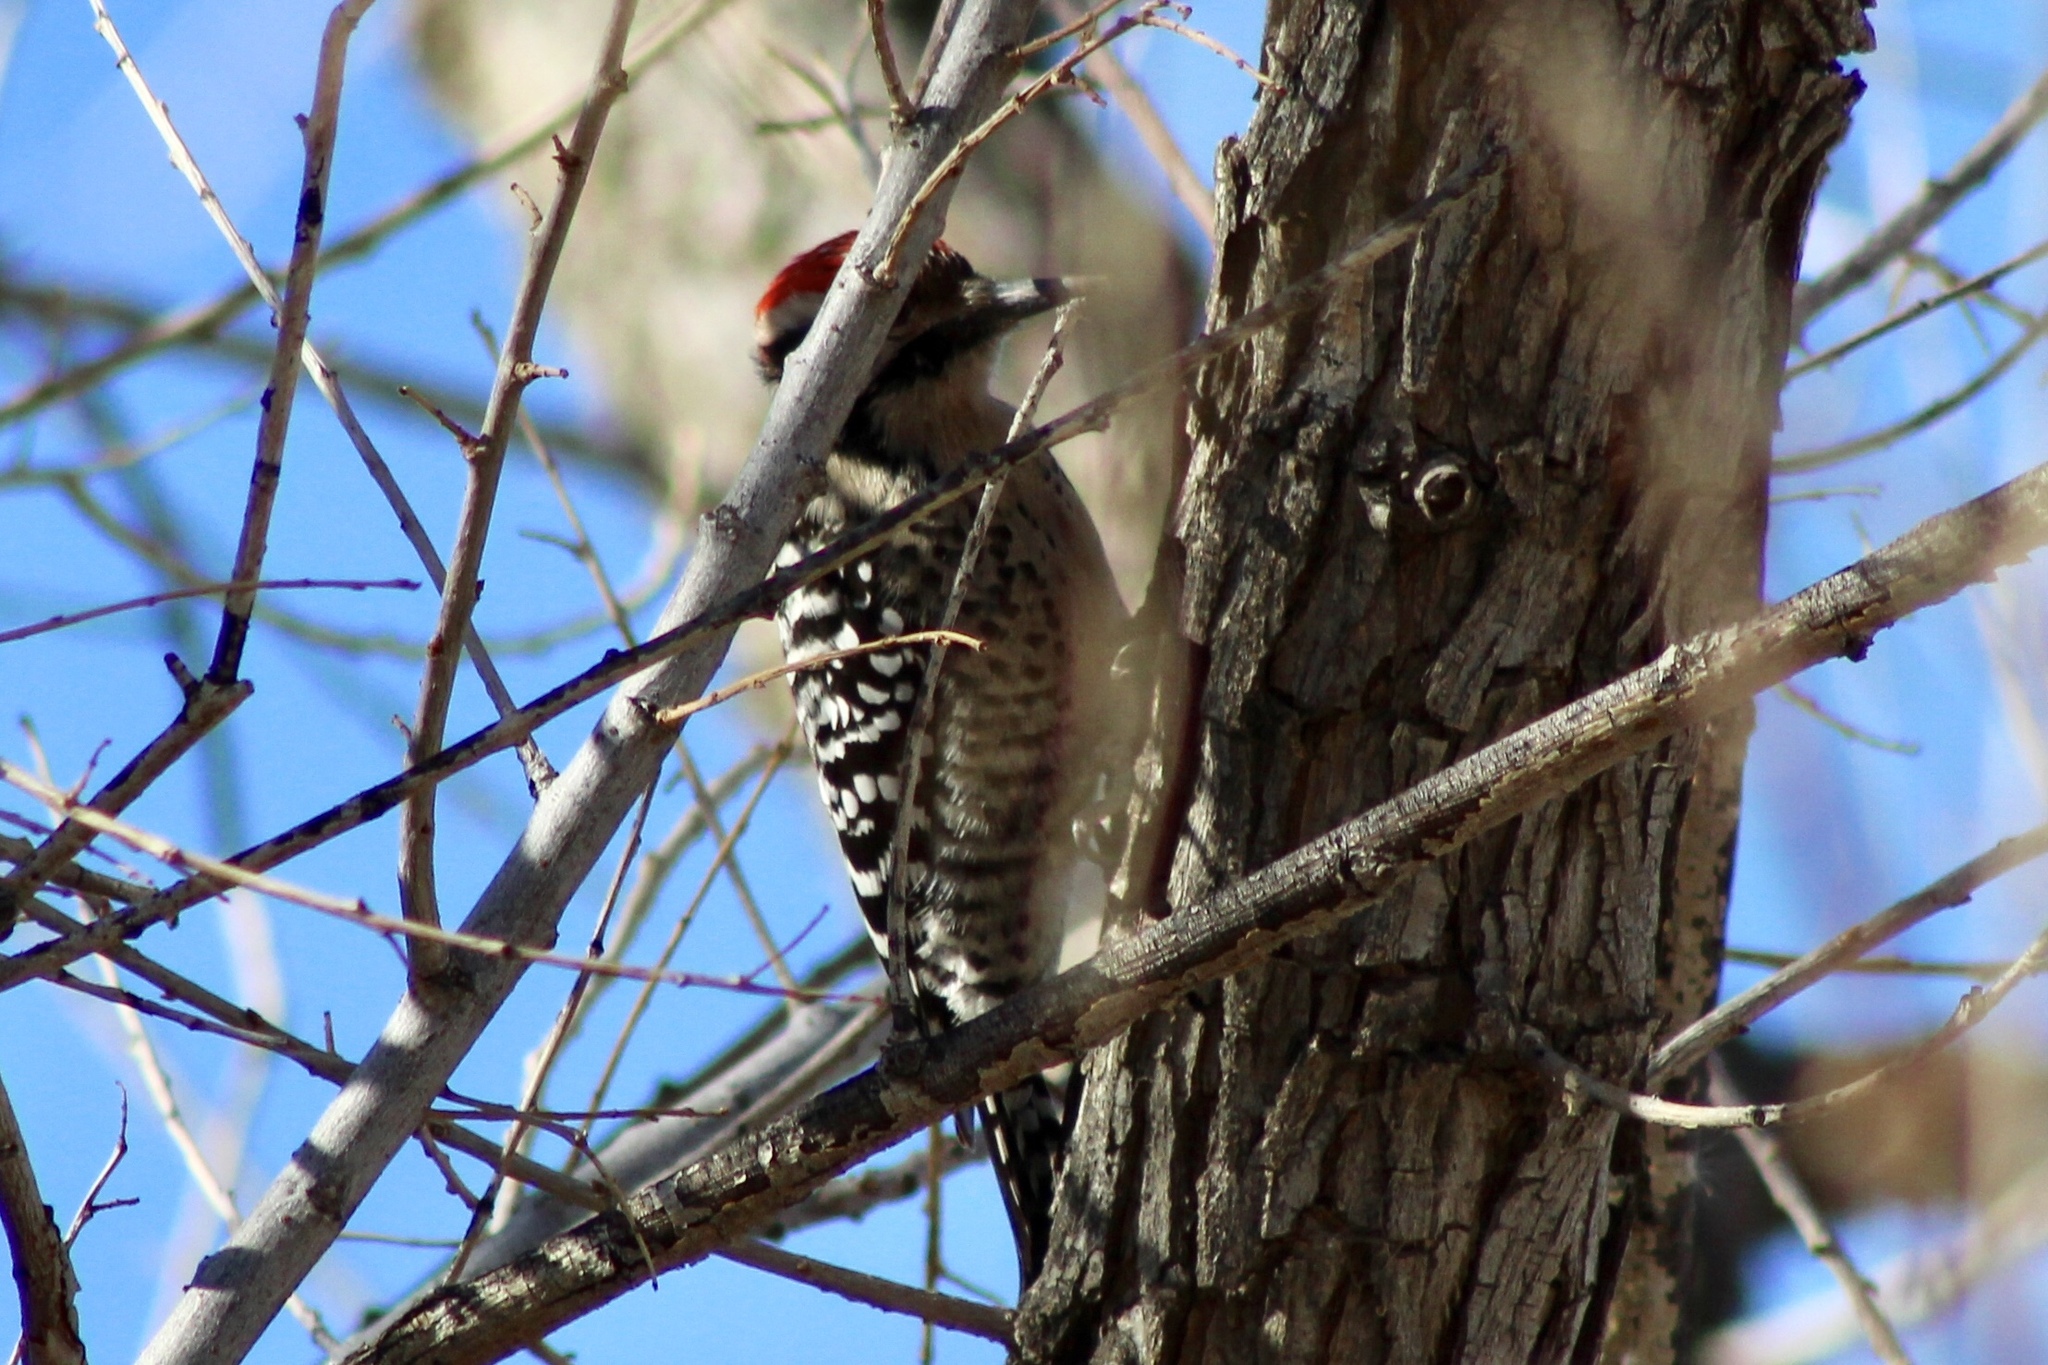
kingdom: Animalia
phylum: Chordata
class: Aves
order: Piciformes
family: Picidae
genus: Dryobates
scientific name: Dryobates scalaris
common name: Ladder-backed woodpecker
